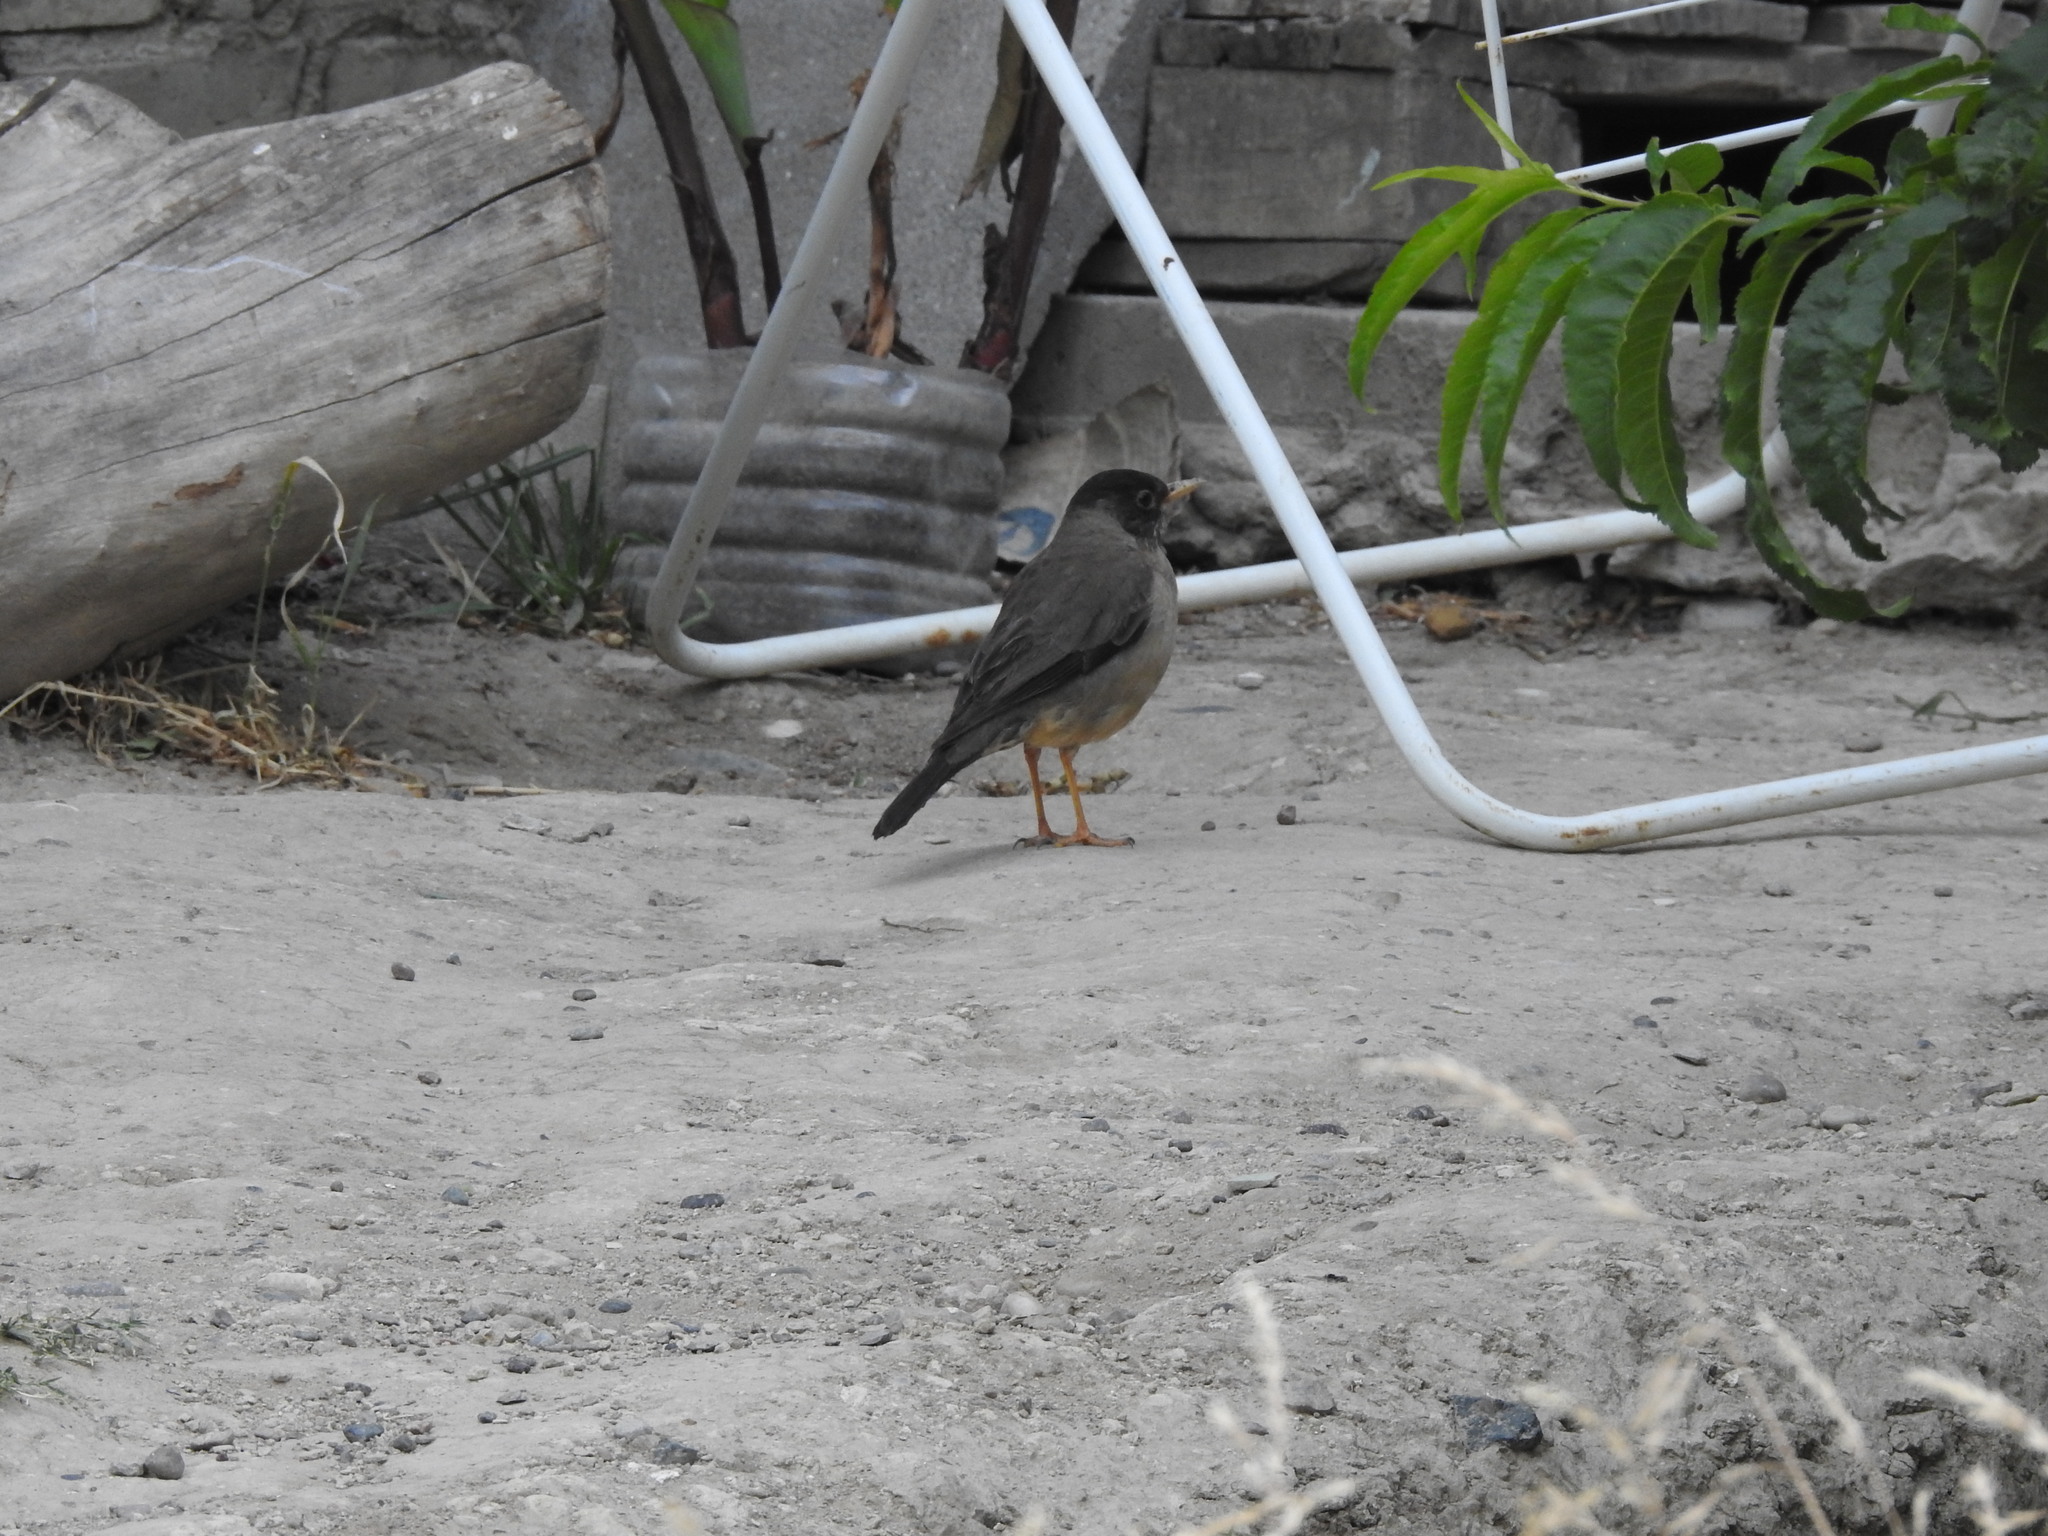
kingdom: Animalia
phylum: Chordata
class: Aves
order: Passeriformes
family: Turdidae
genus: Turdus
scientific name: Turdus falcklandii
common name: Austral thrush
